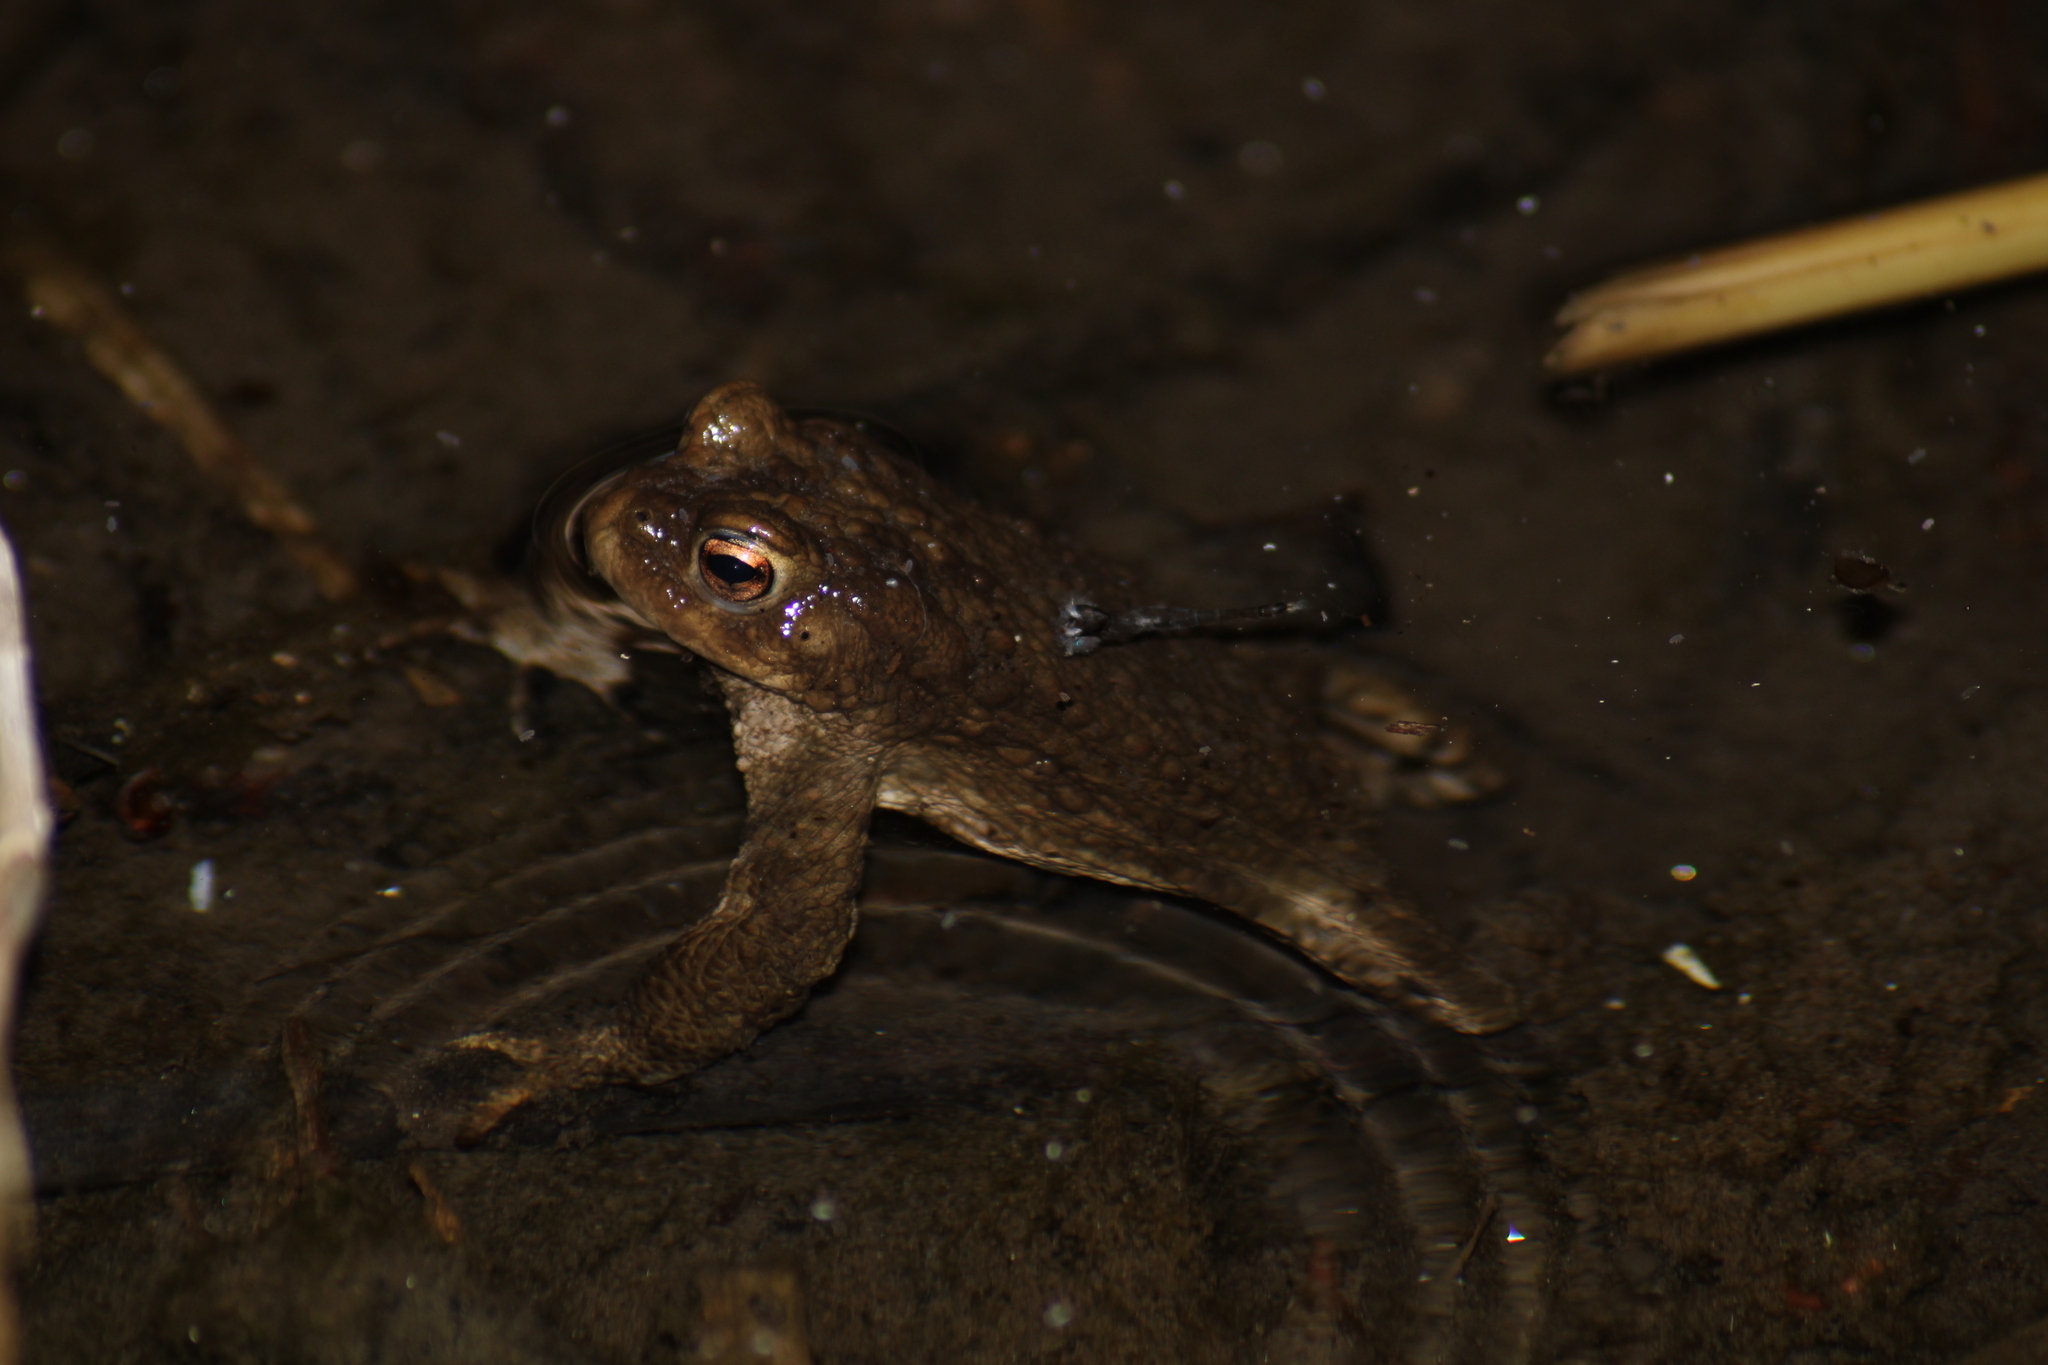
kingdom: Animalia
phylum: Chordata
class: Amphibia
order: Anura
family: Bufonidae
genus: Bufo
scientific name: Bufo bufo
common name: Common toad
